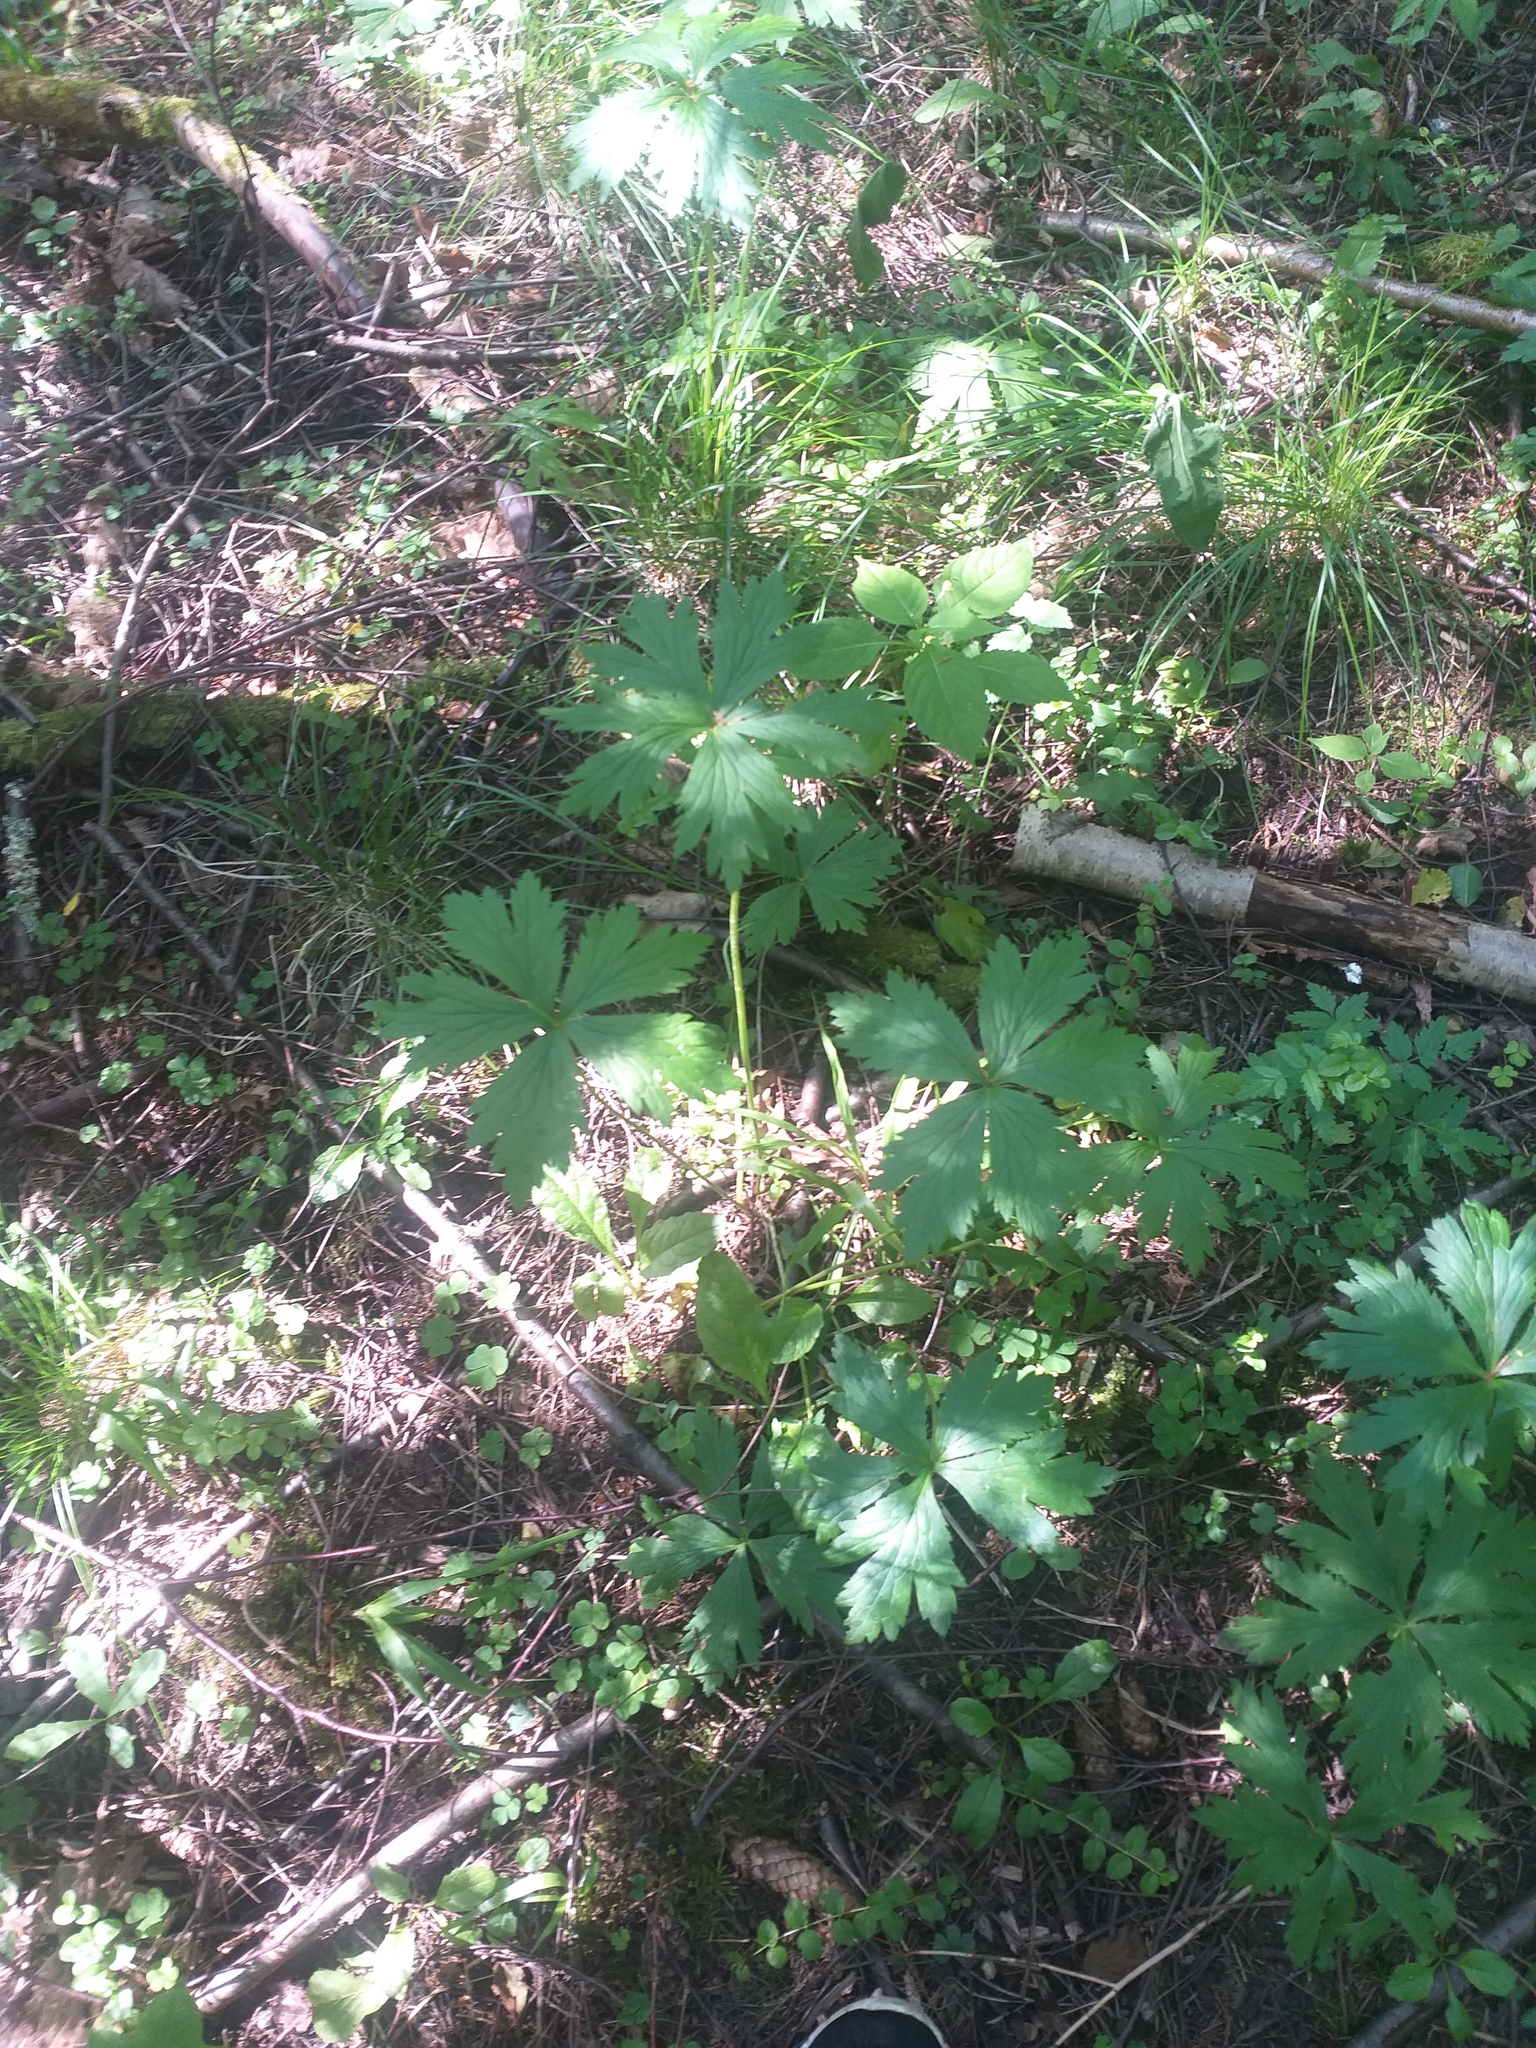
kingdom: Plantae
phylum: Tracheophyta
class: Magnoliopsida
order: Ranunculales
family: Ranunculaceae
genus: Trollius
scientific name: Trollius europaeus
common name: European globeflower
